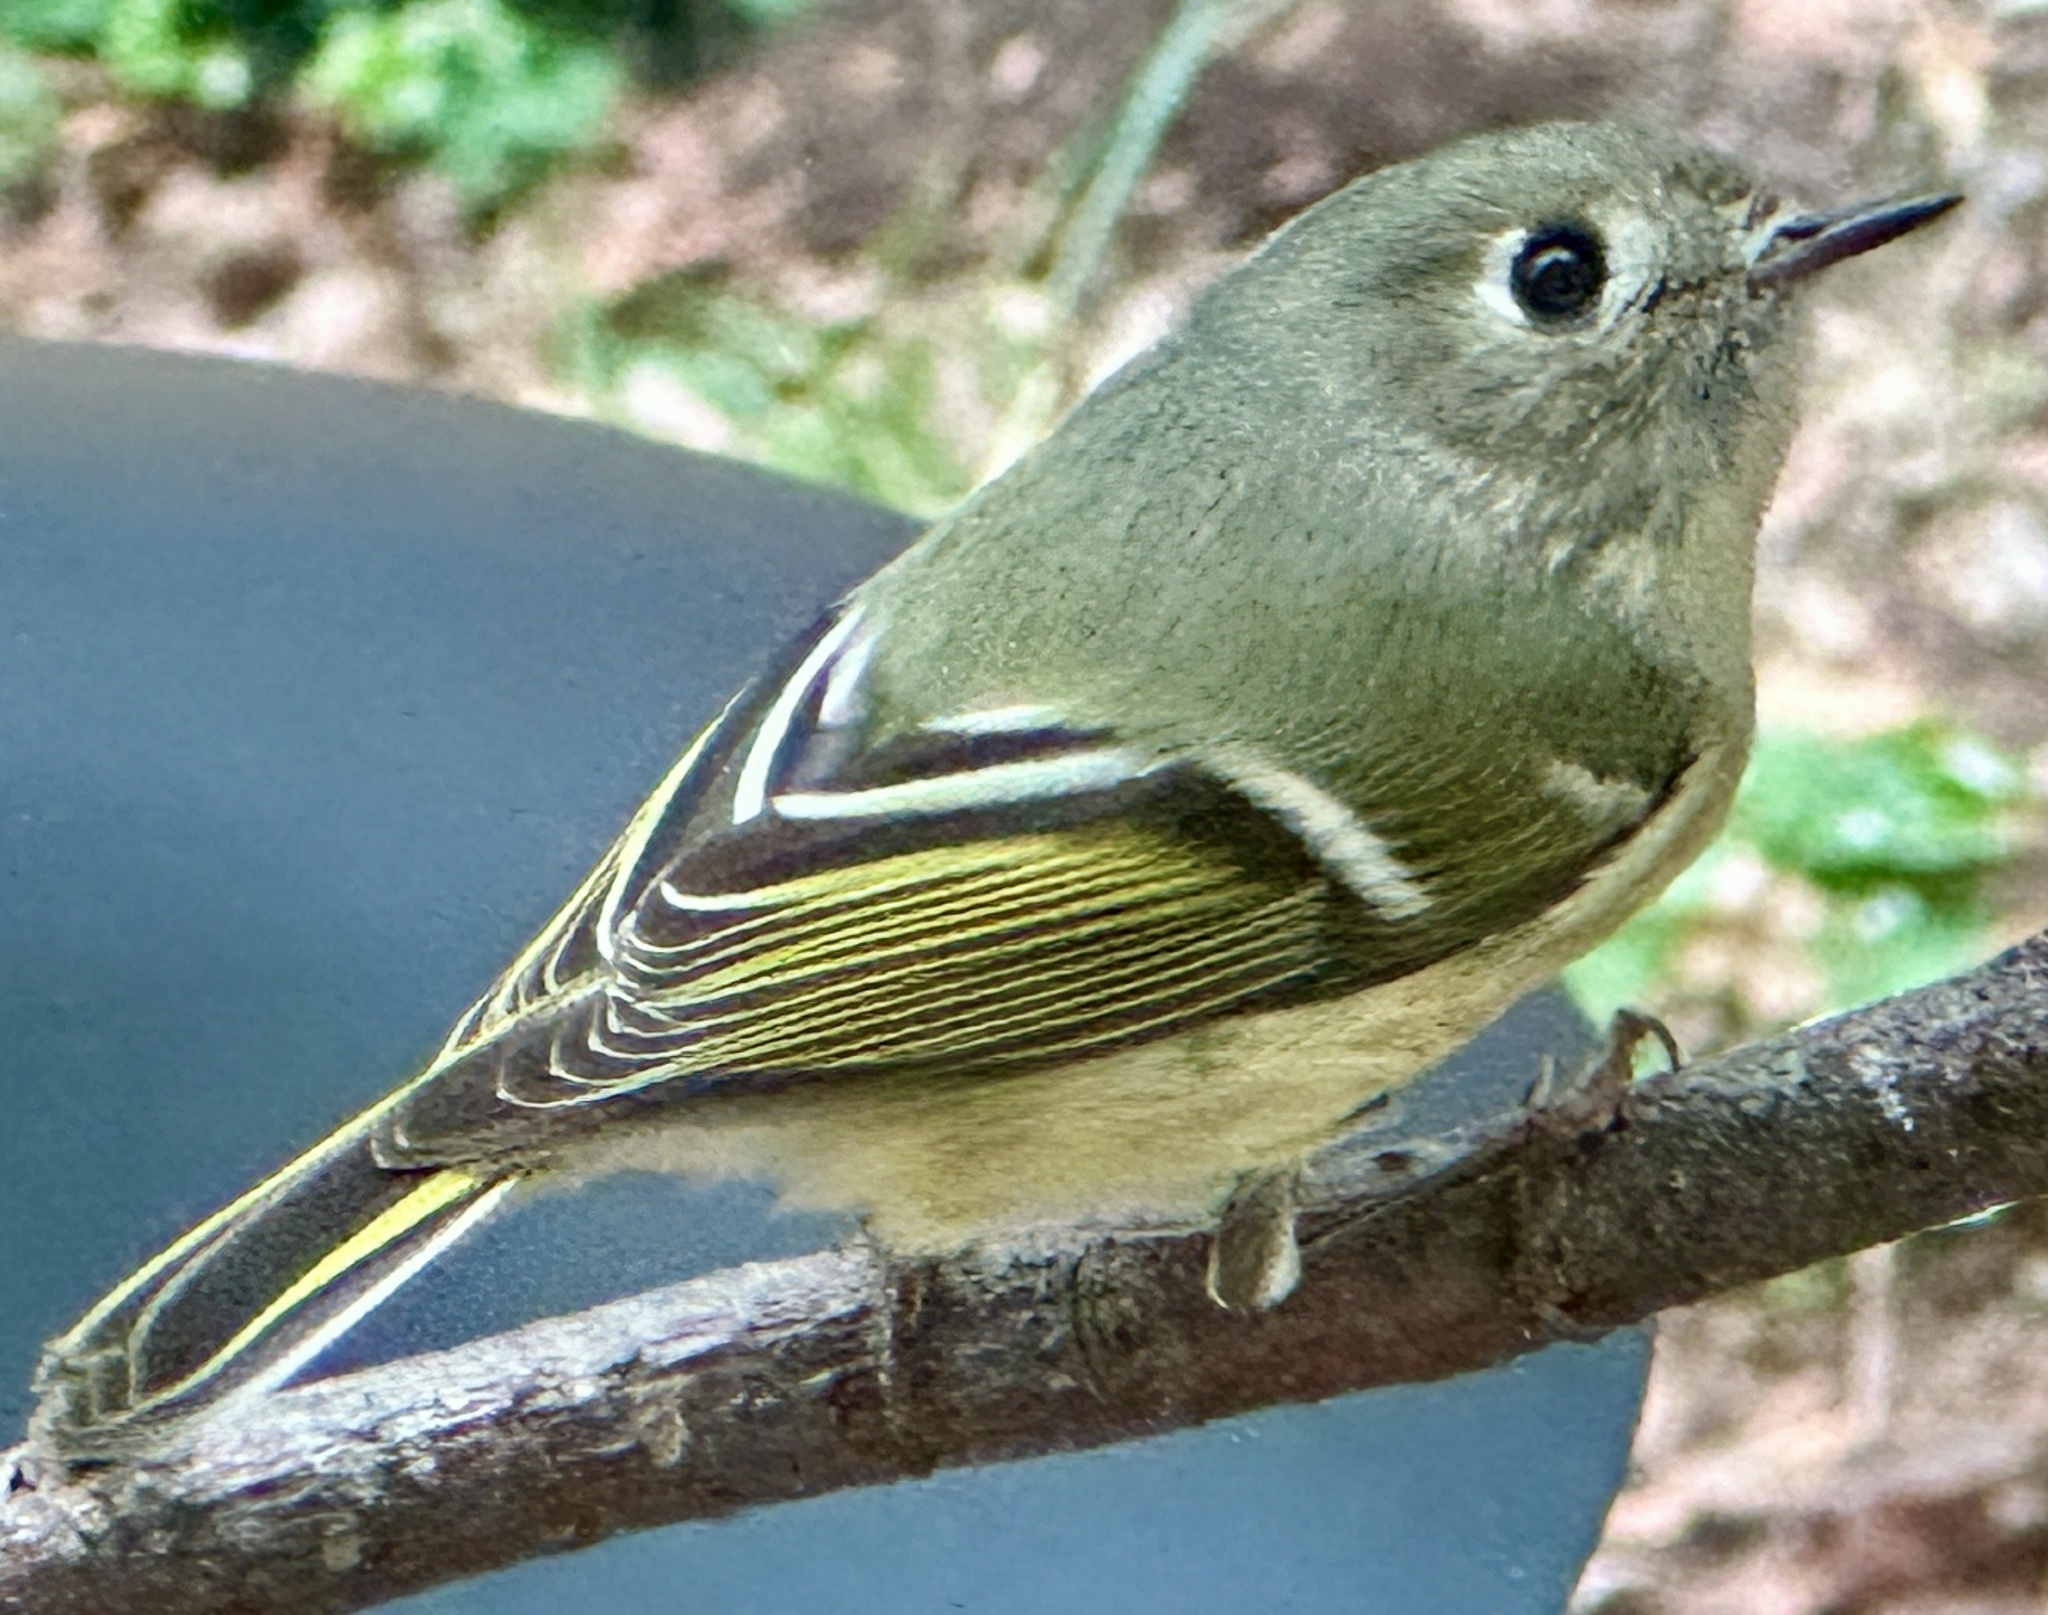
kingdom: Animalia
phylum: Chordata
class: Aves
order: Passeriformes
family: Regulidae
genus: Regulus
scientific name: Regulus calendula
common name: Ruby-crowned kinglet
